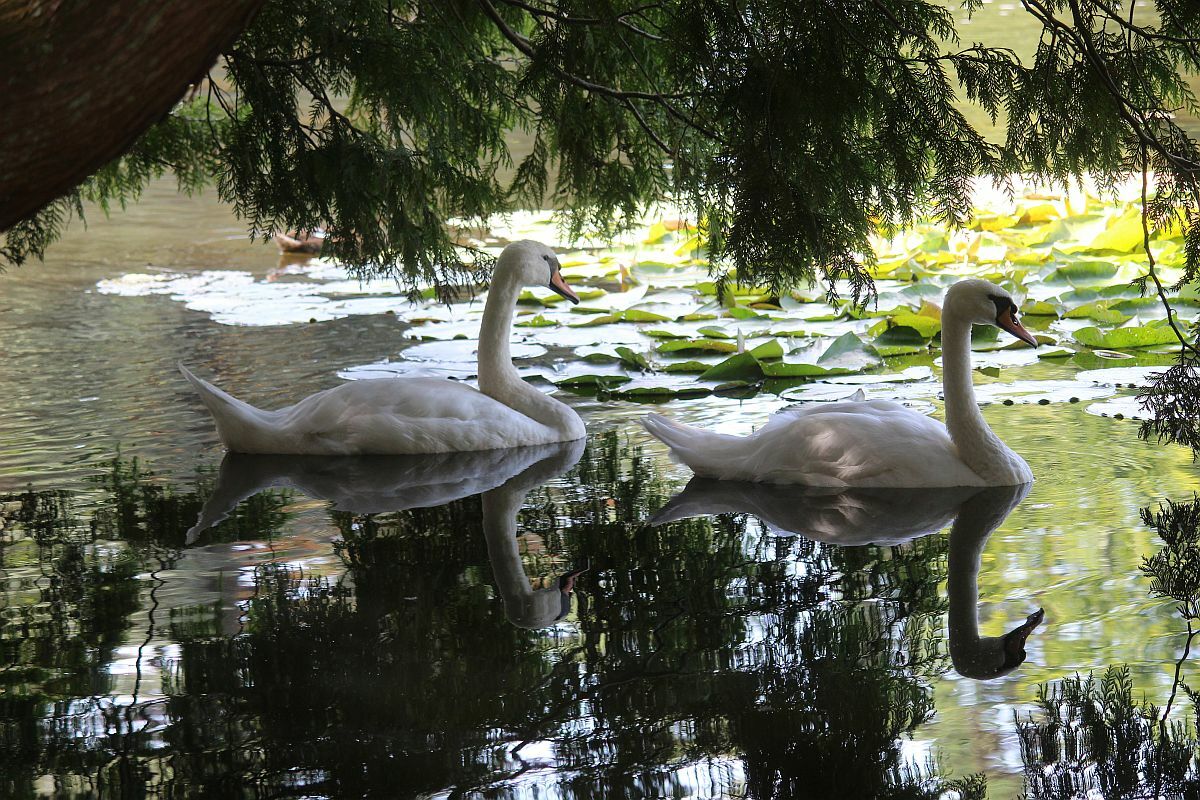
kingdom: Animalia
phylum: Chordata
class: Aves
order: Anseriformes
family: Anatidae
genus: Cygnus
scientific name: Cygnus olor
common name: Mute swan
